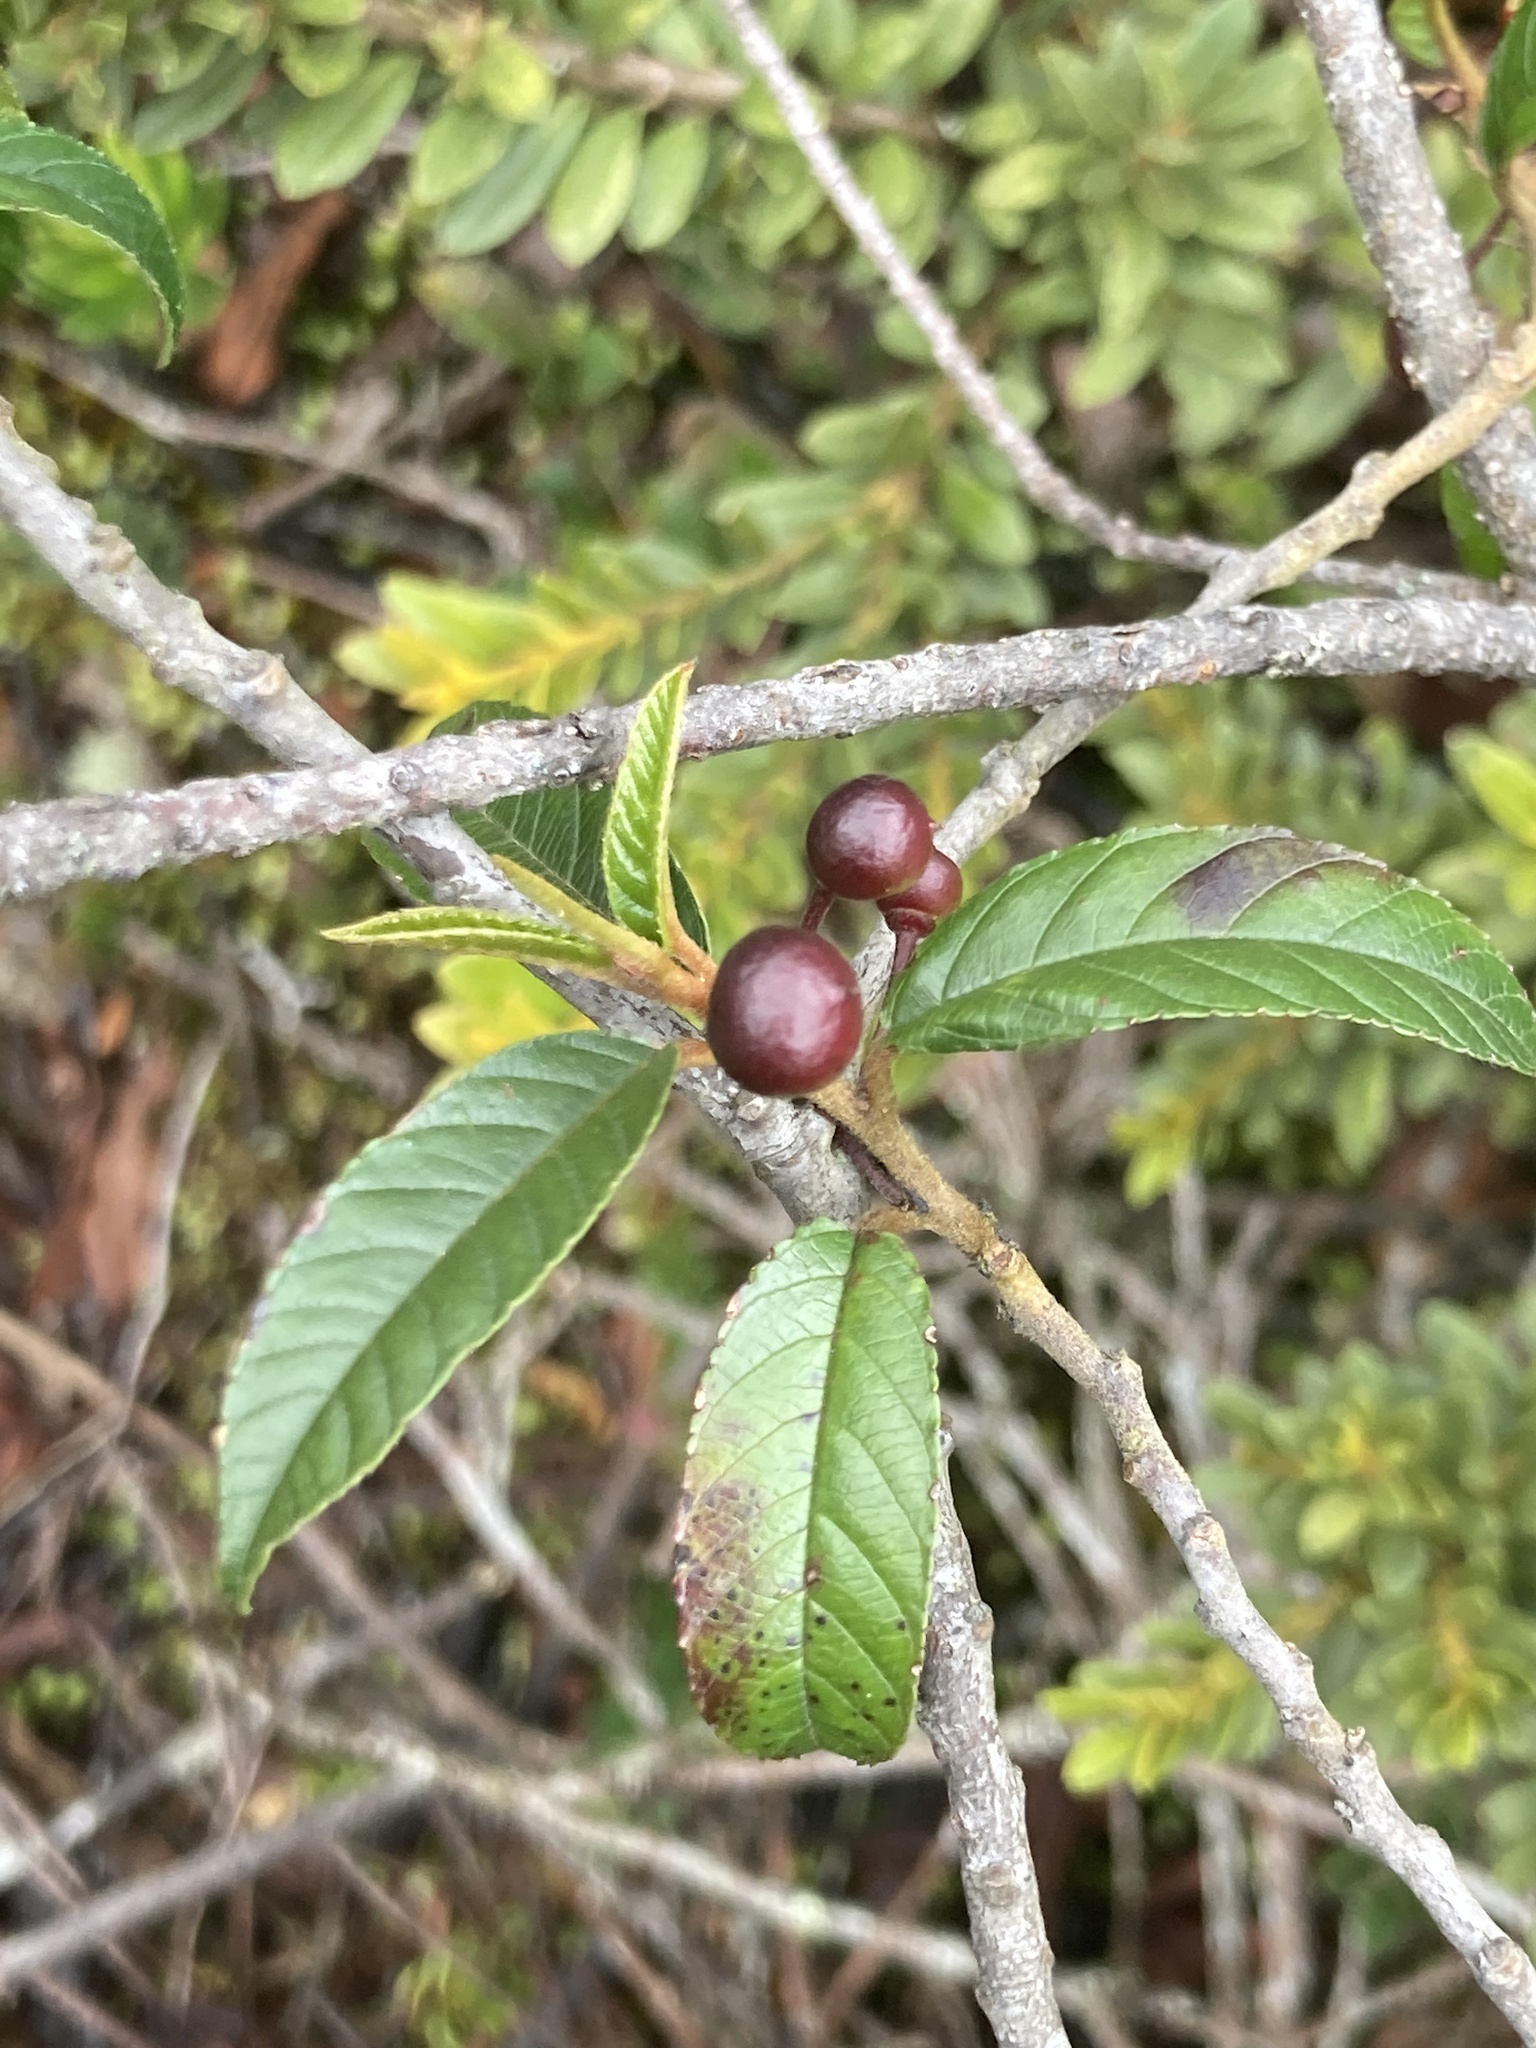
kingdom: Plantae
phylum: Tracheophyta
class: Magnoliopsida
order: Rosales
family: Rhamnaceae
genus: Frangula
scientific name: Frangula goudotiana
